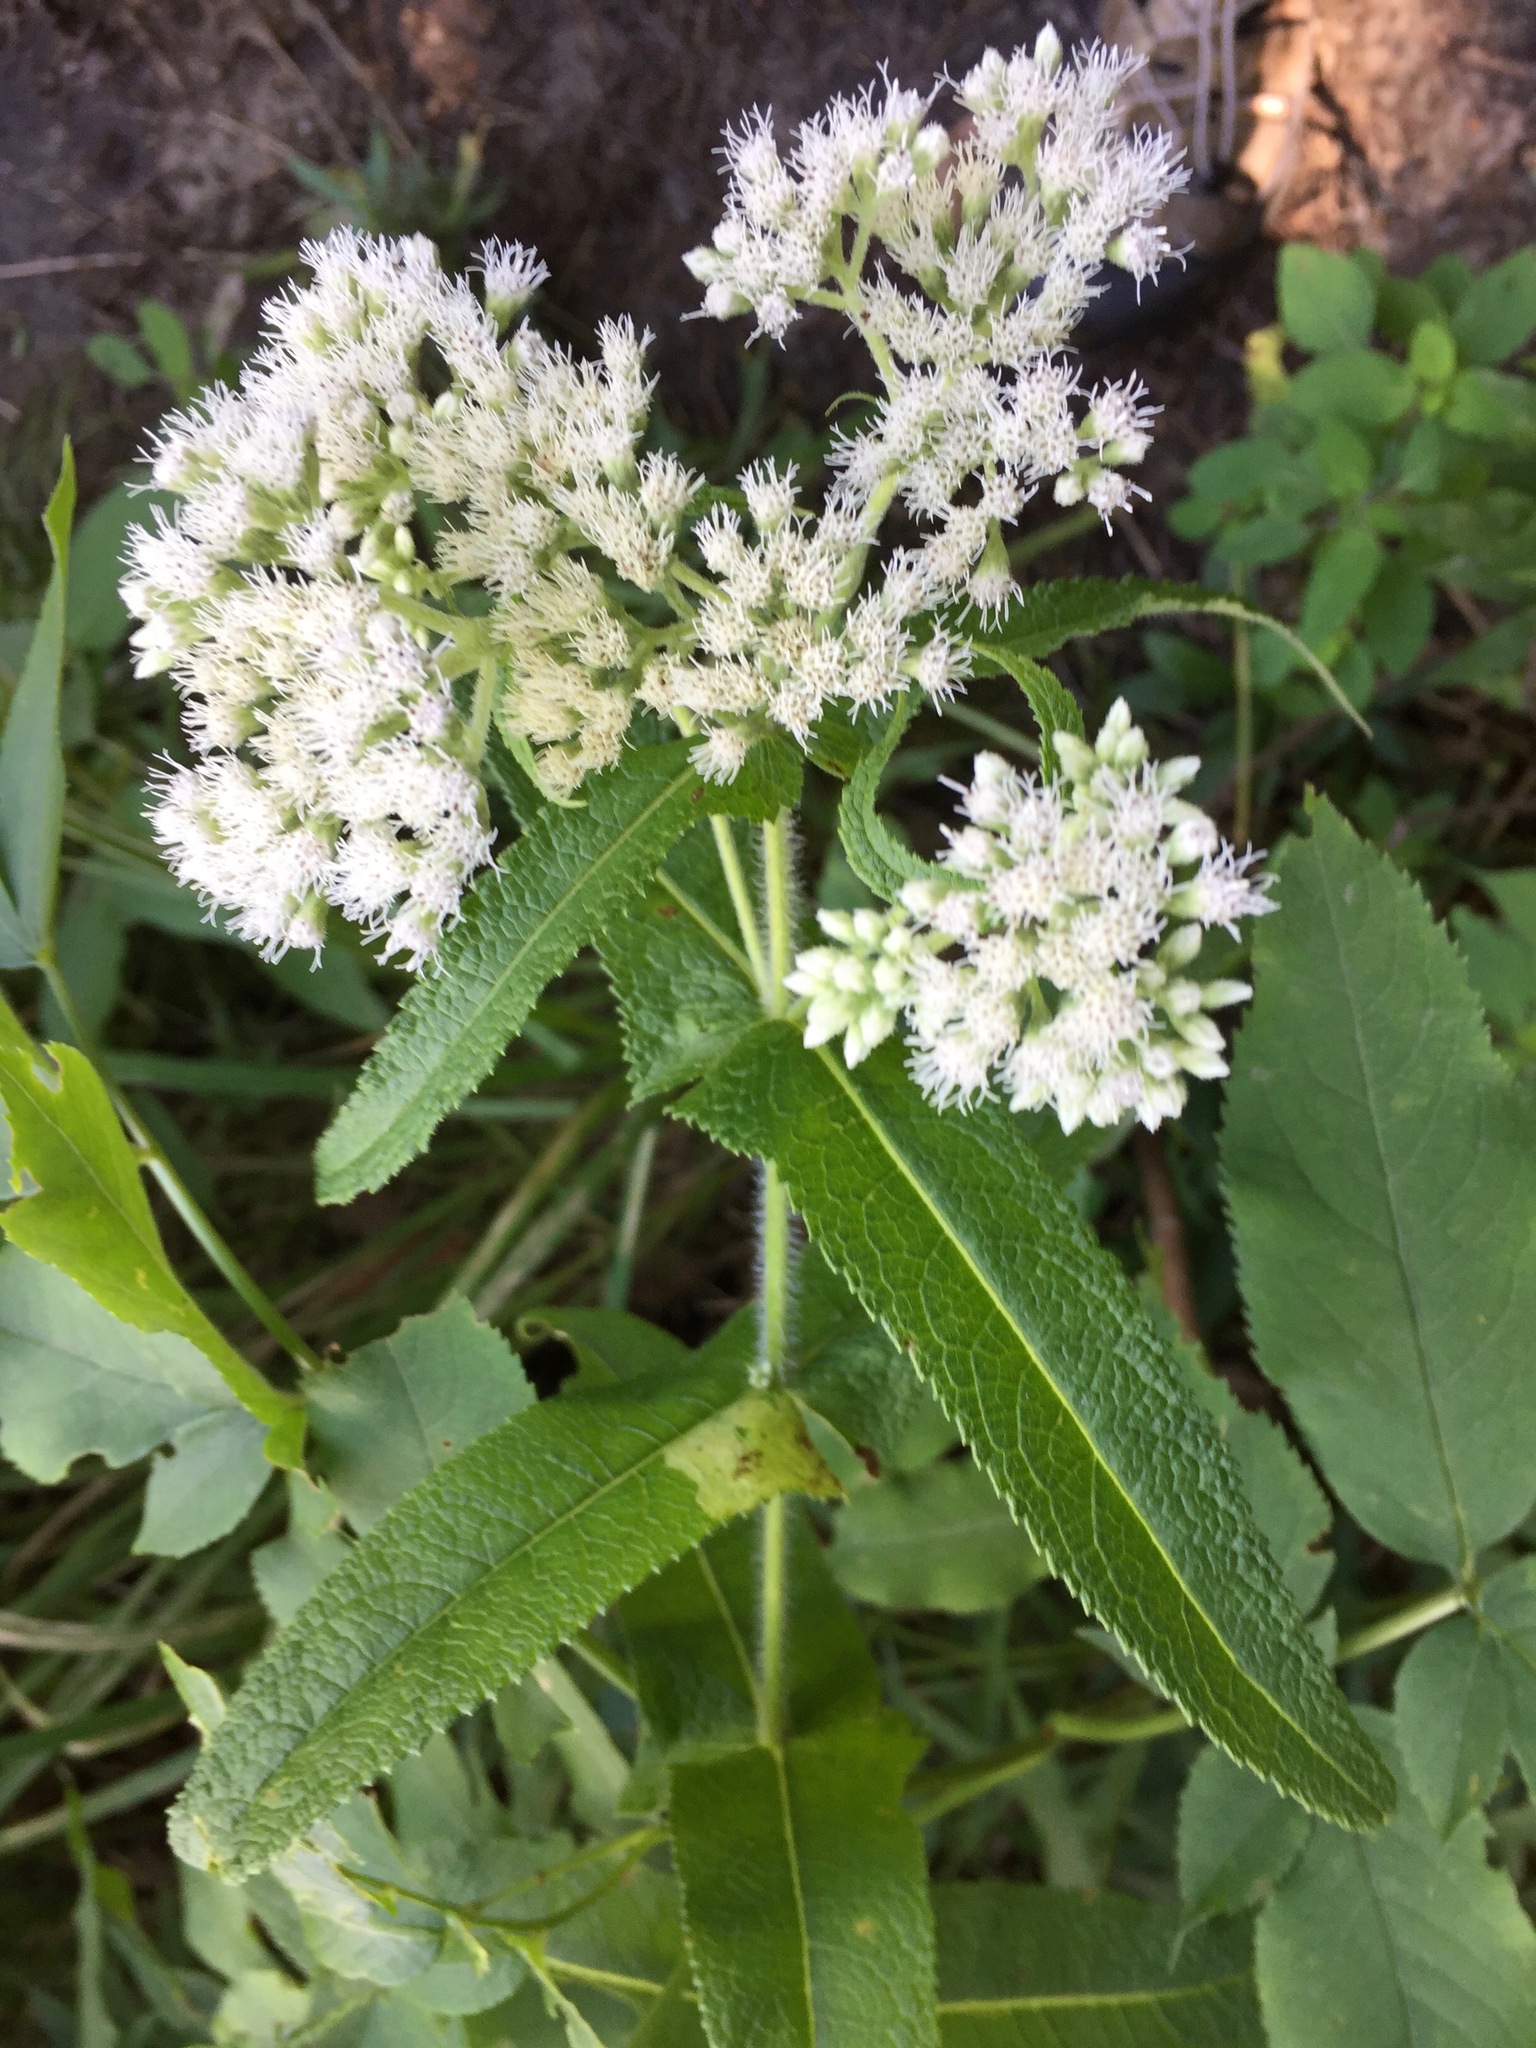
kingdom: Plantae
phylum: Tracheophyta
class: Magnoliopsida
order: Asterales
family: Asteraceae
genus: Eupatorium
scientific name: Eupatorium perfoliatum
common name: Boneset
